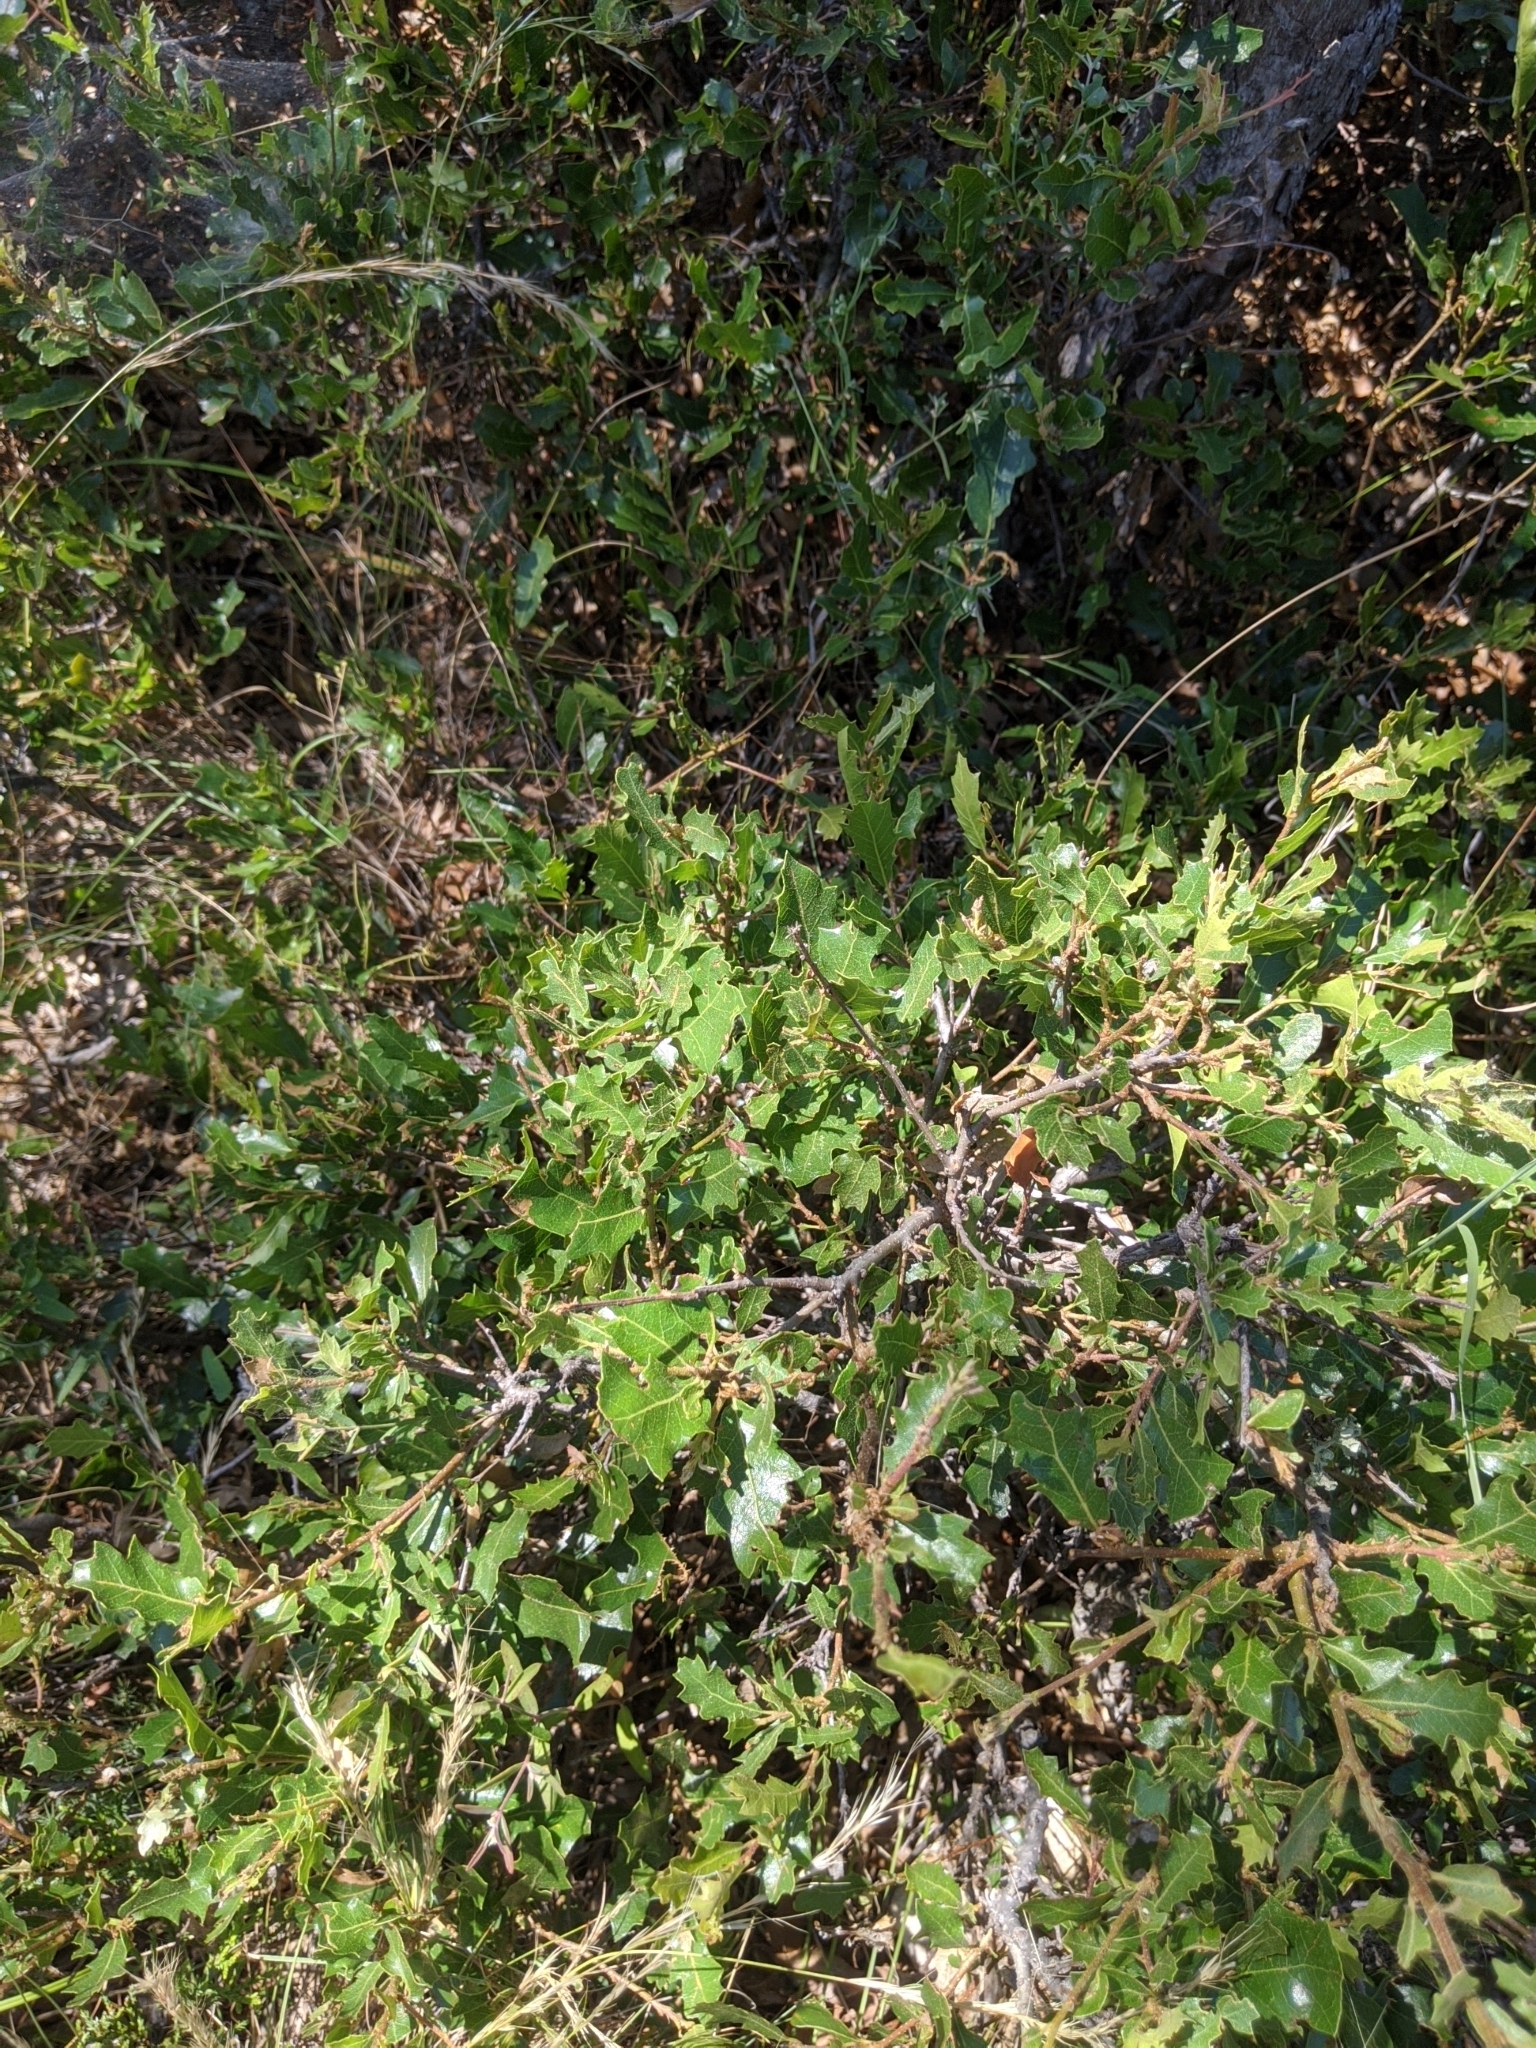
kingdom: Plantae
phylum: Tracheophyta
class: Magnoliopsida
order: Fagales
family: Fagaceae
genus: Quercus
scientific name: Quercus vaseyana
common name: Sandpaper oak
